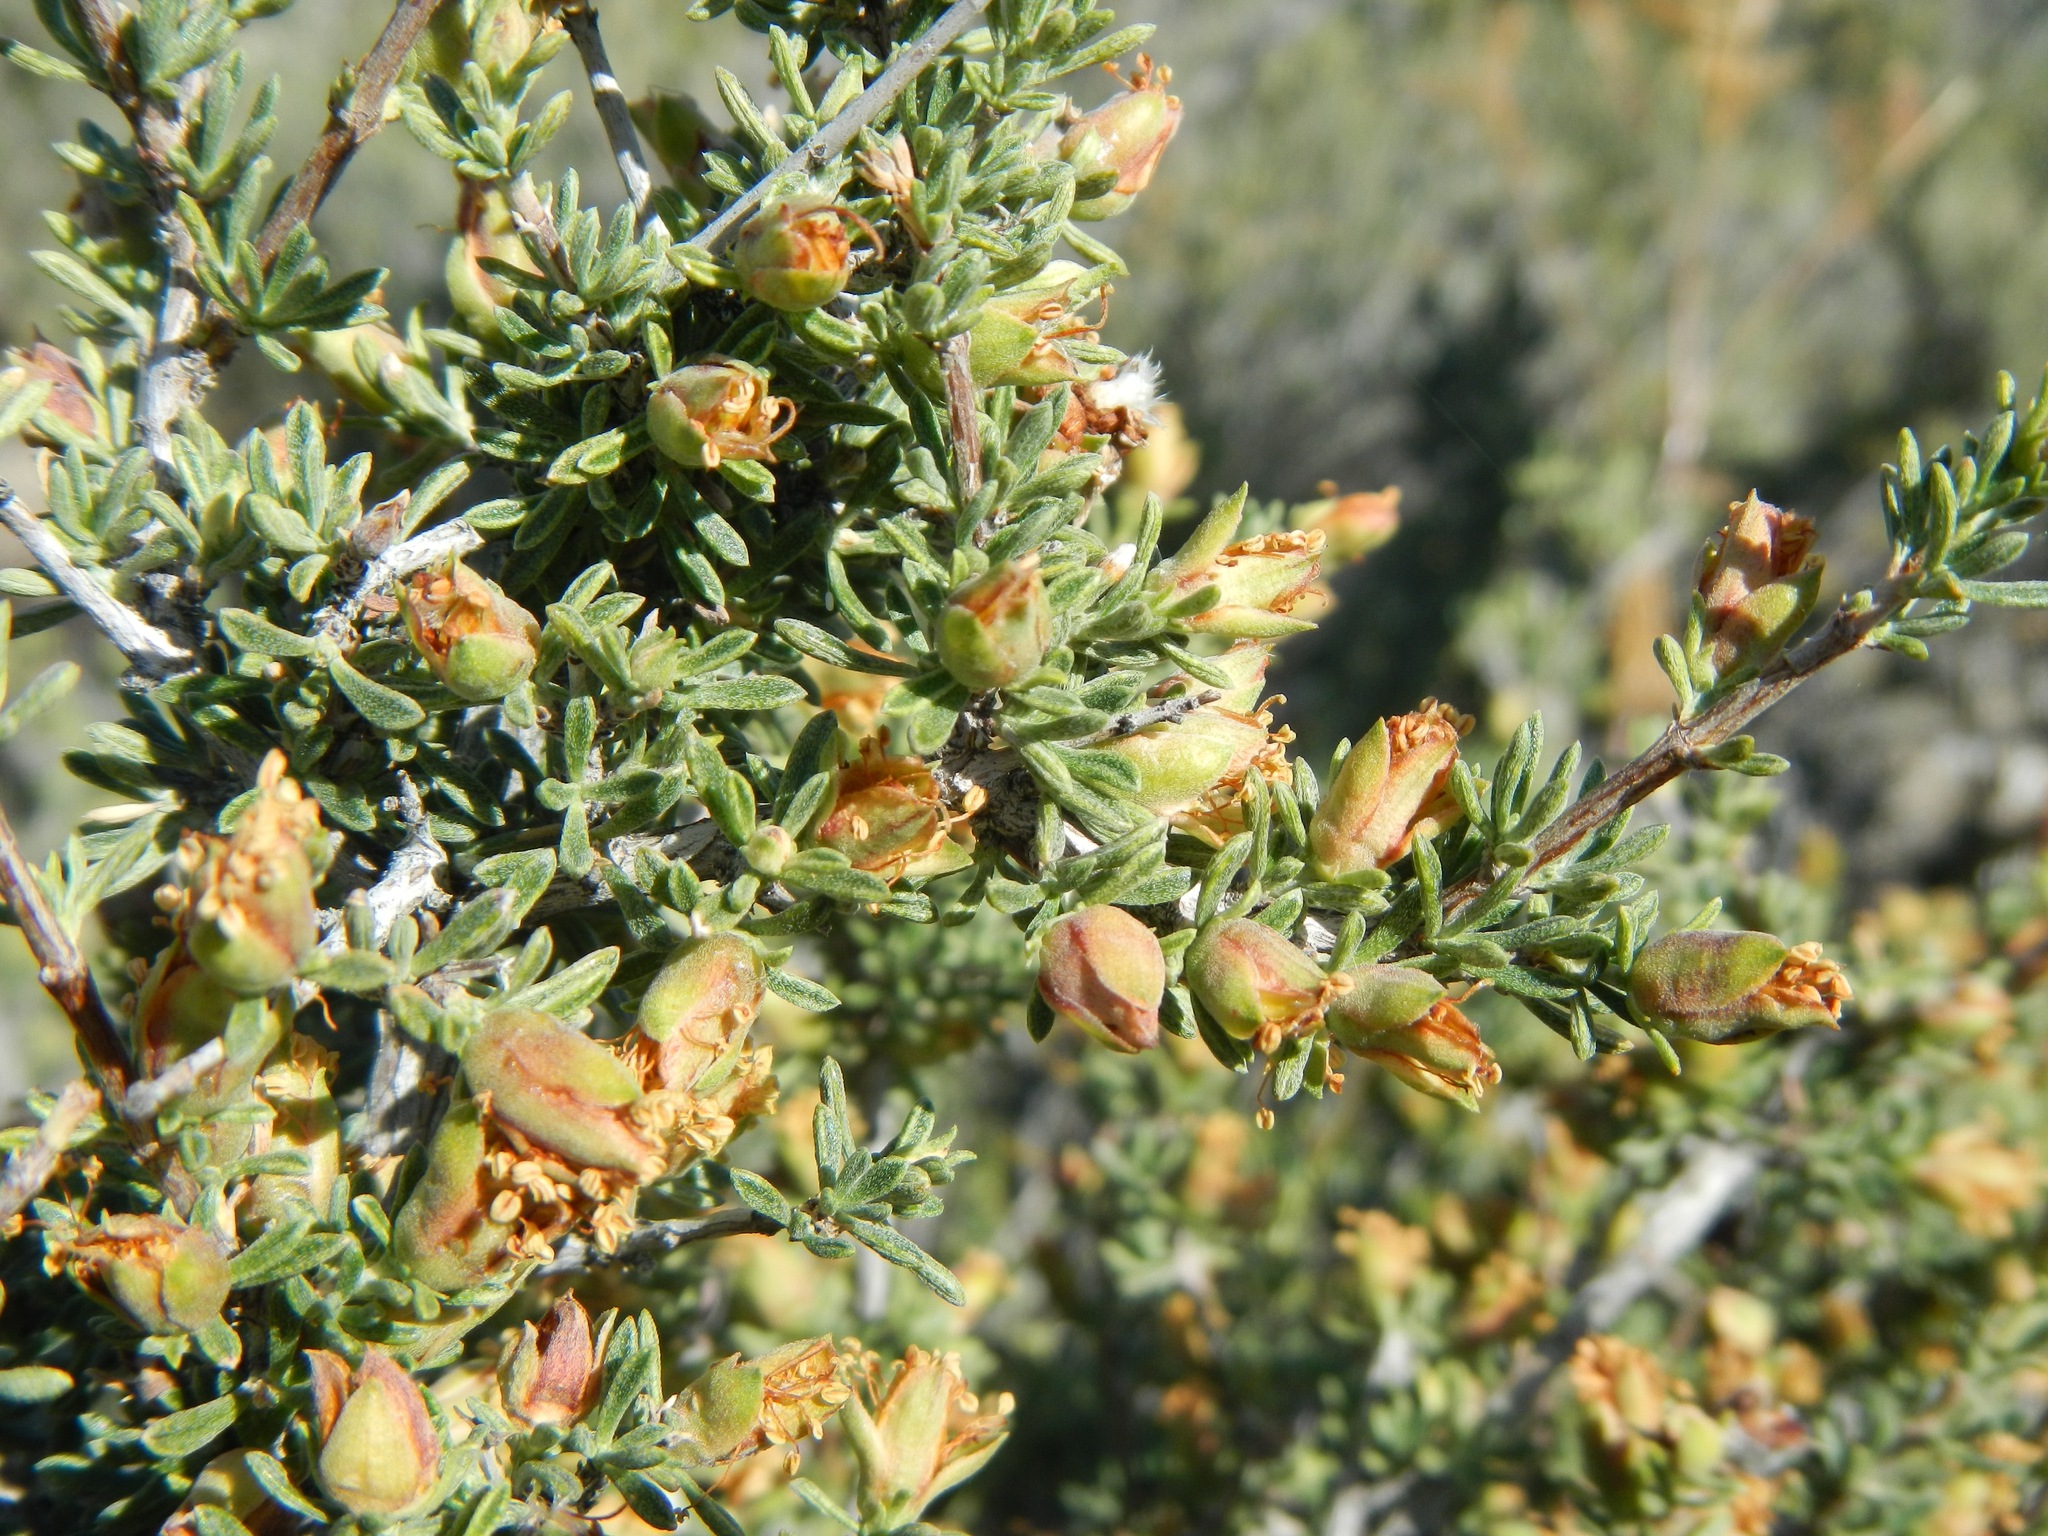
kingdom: Plantae
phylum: Tracheophyta
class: Magnoliopsida
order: Rosales
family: Rosaceae
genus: Coleogyne
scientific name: Coleogyne ramosissima
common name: Blackbrush
